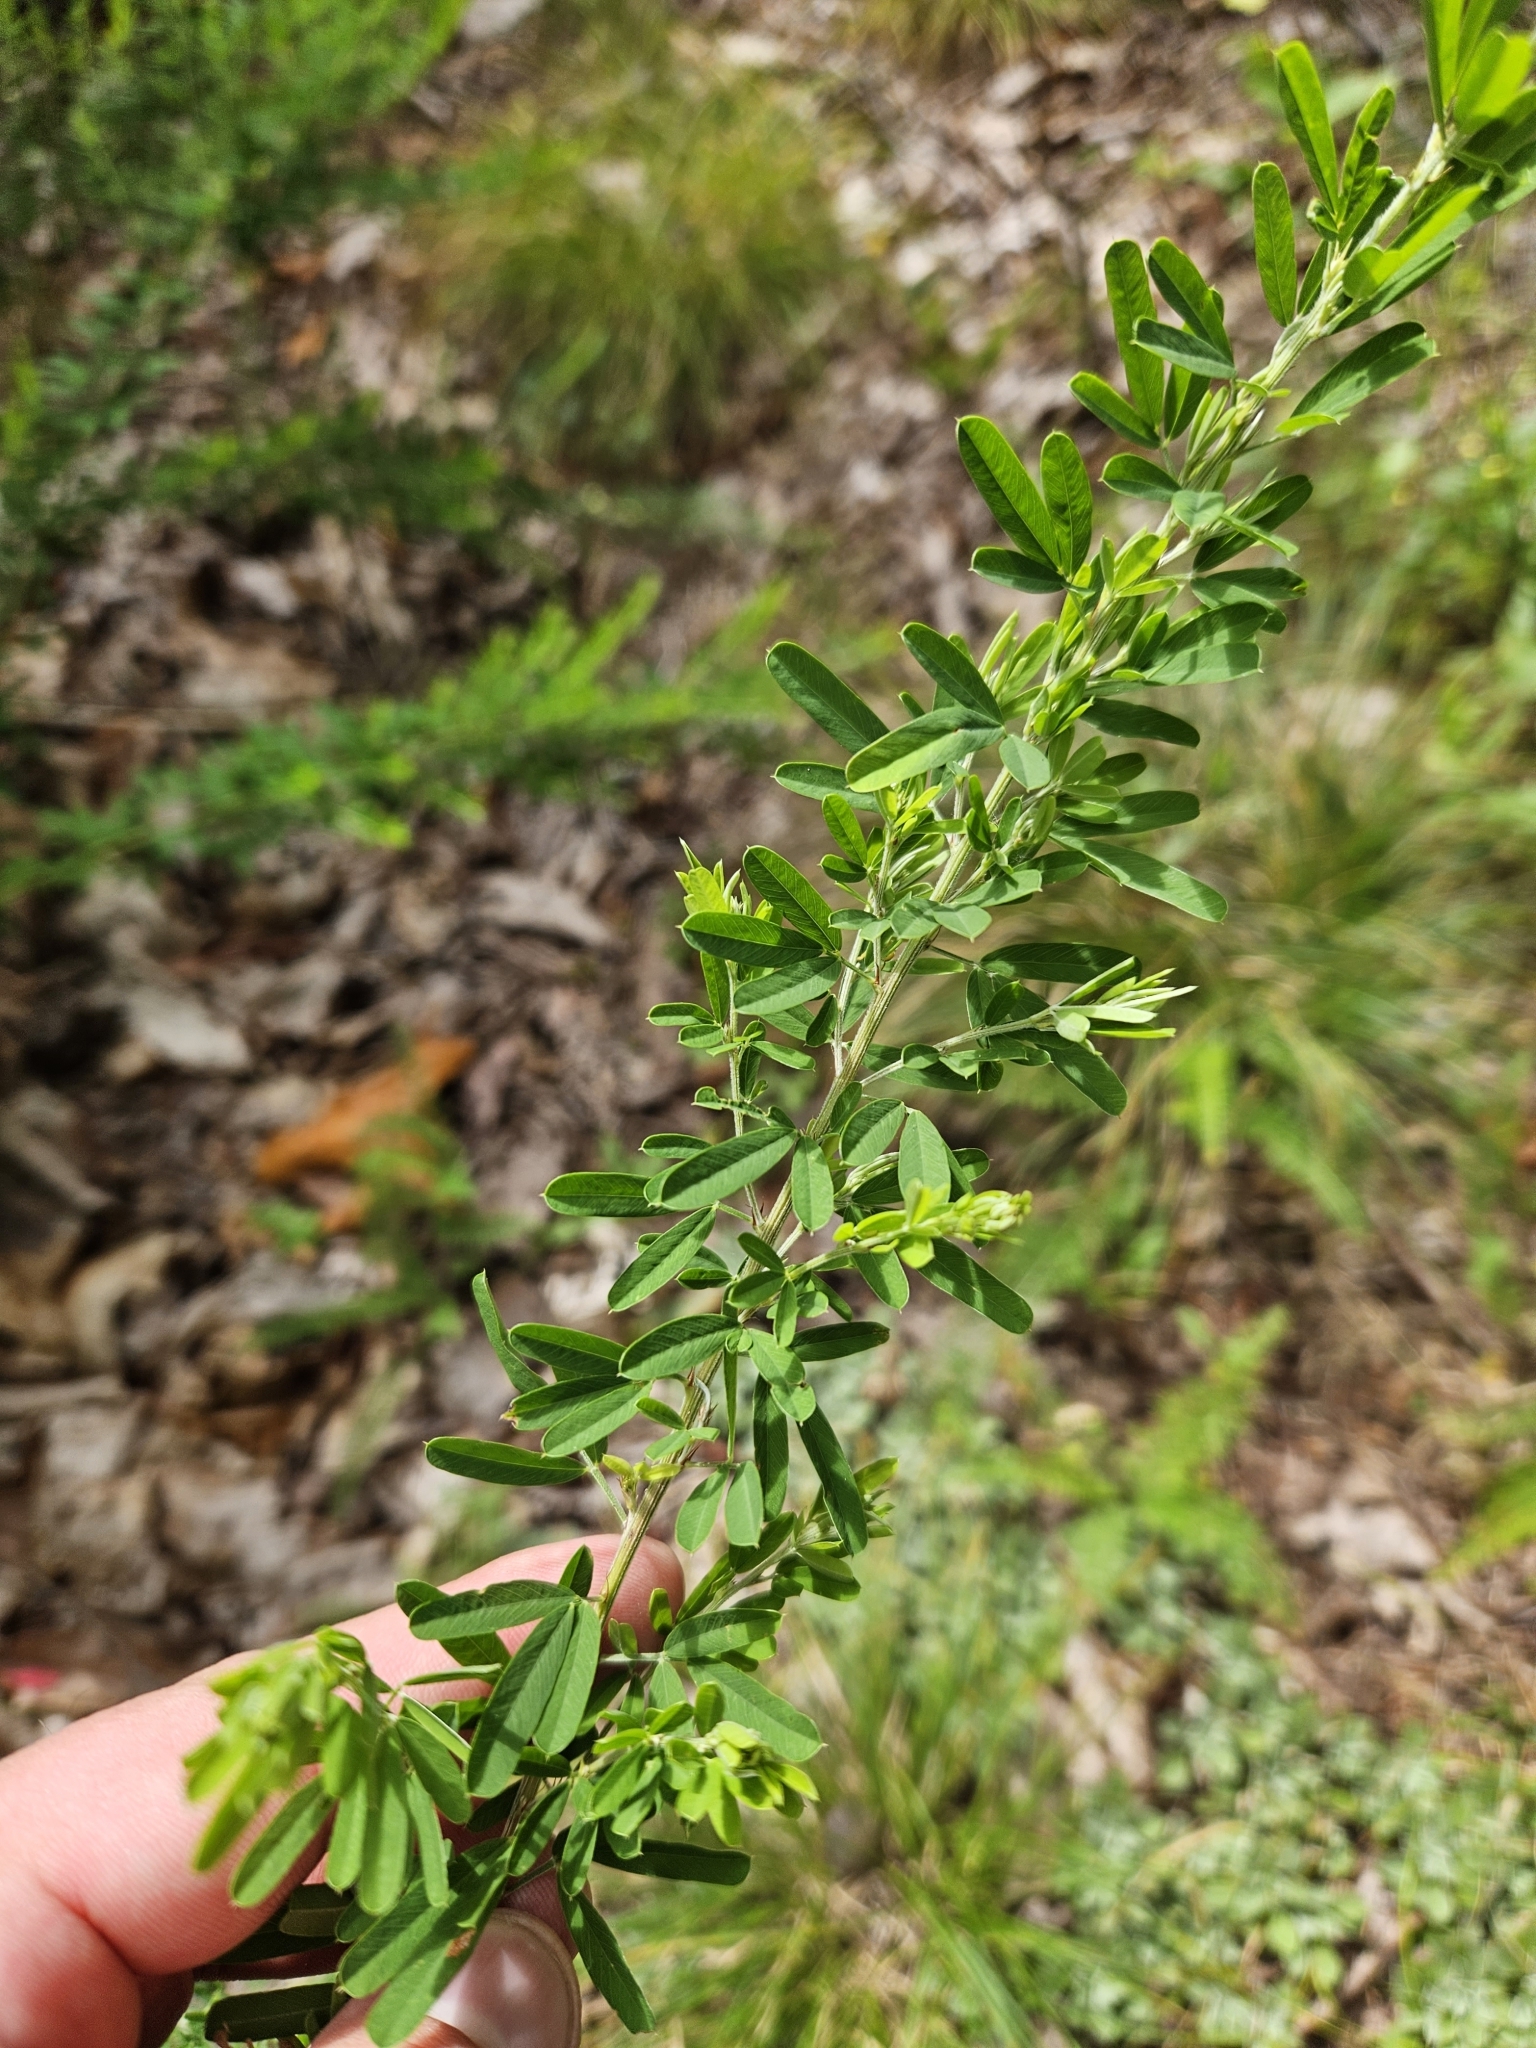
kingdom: Plantae
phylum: Tracheophyta
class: Magnoliopsida
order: Fabales
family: Fabaceae
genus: Lespedeza
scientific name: Lespedeza cuneata
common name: Chinese bush-clover
